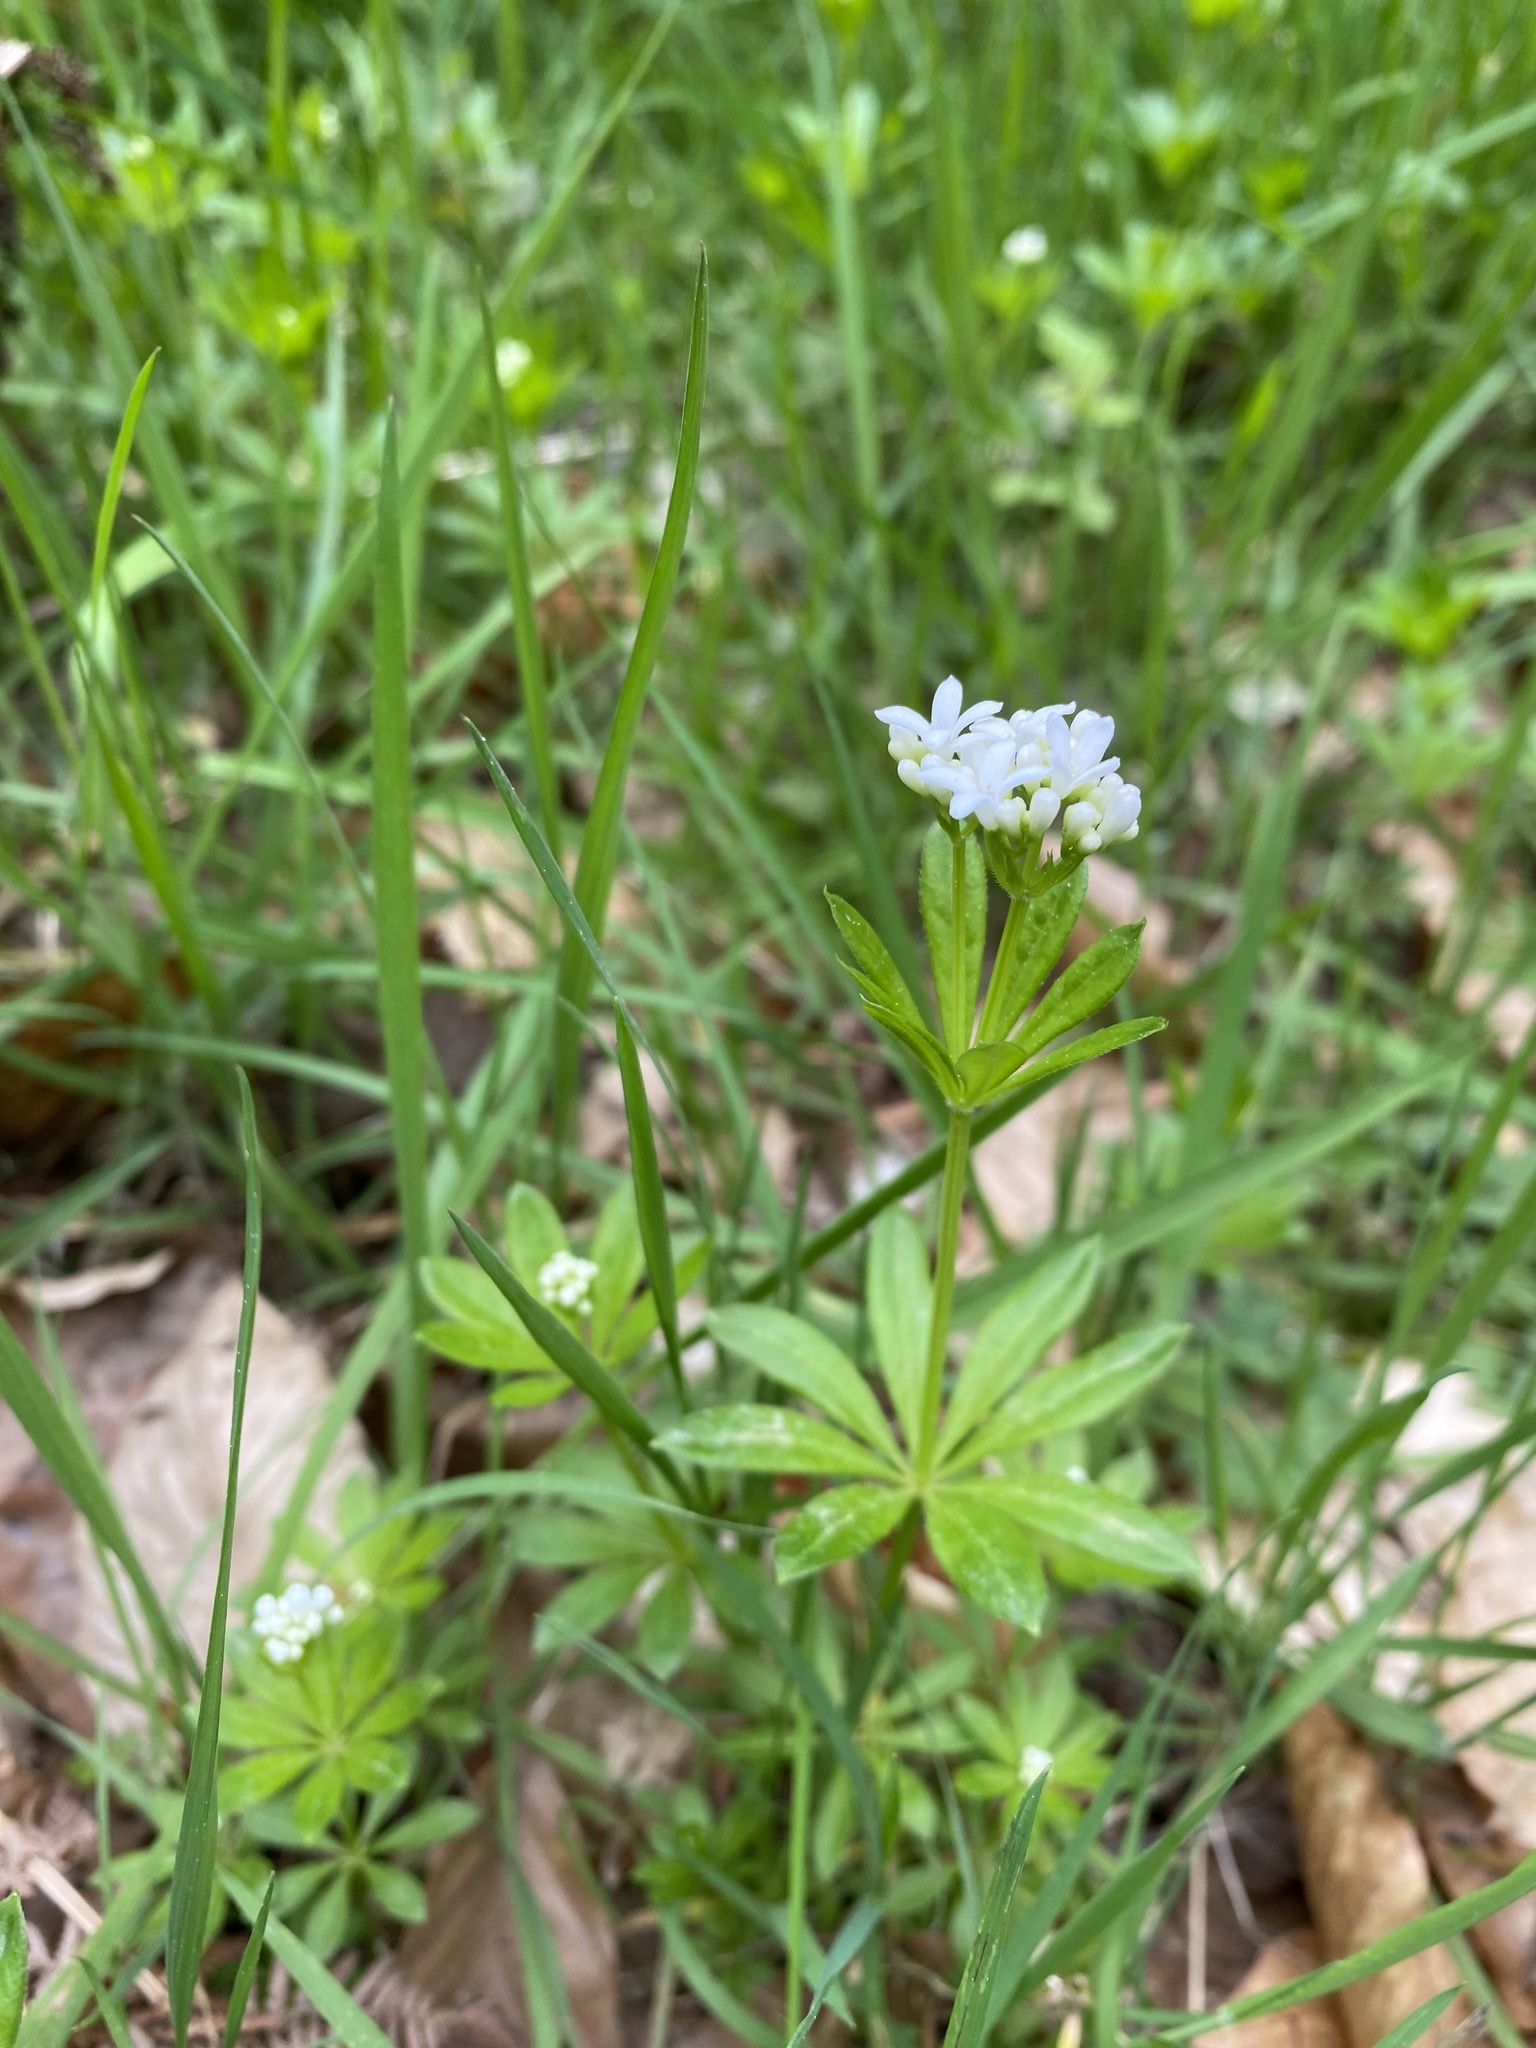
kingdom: Plantae
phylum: Tracheophyta
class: Magnoliopsida
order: Gentianales
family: Rubiaceae
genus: Galium
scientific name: Galium odoratum
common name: Sweet woodruff
